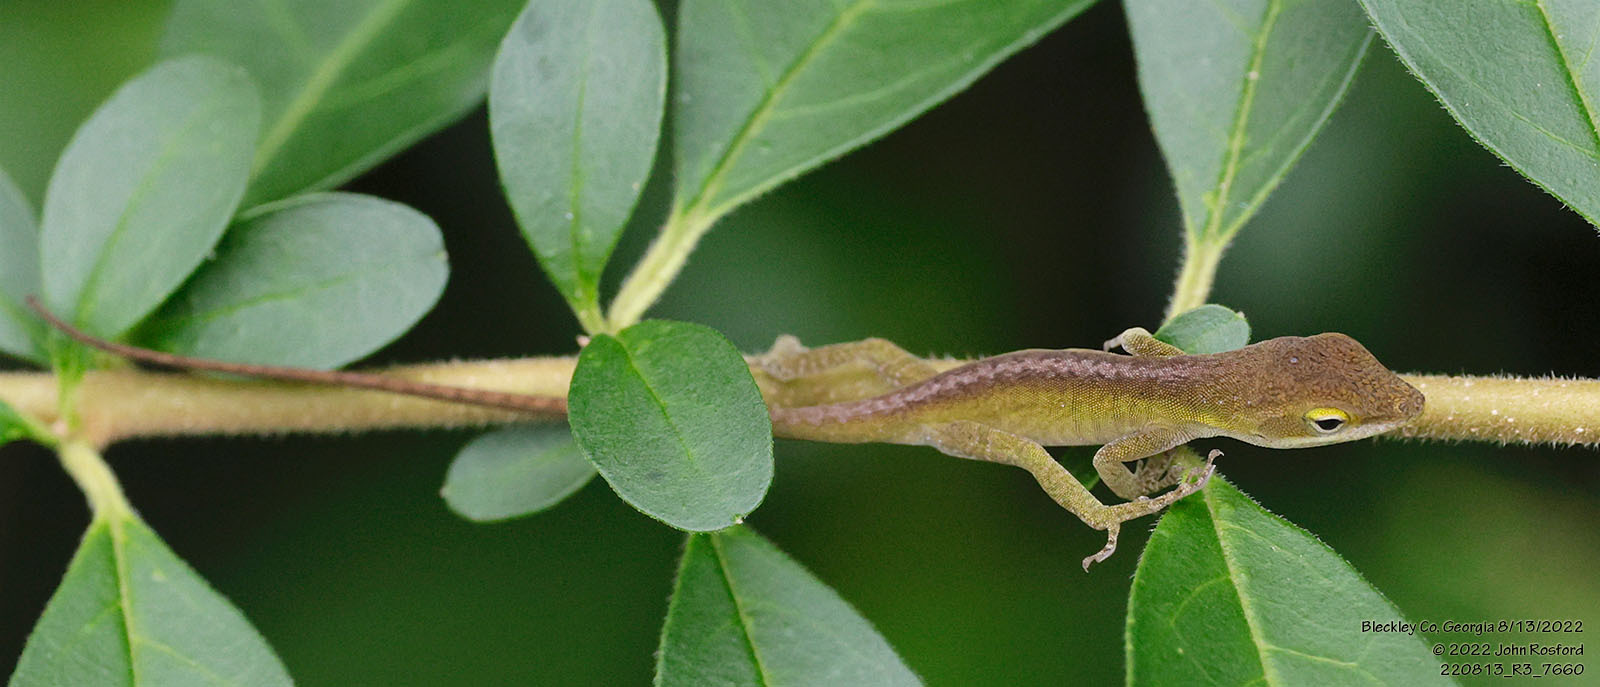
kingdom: Animalia
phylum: Chordata
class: Squamata
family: Dactyloidae
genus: Anolis
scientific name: Anolis carolinensis
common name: Green anole
